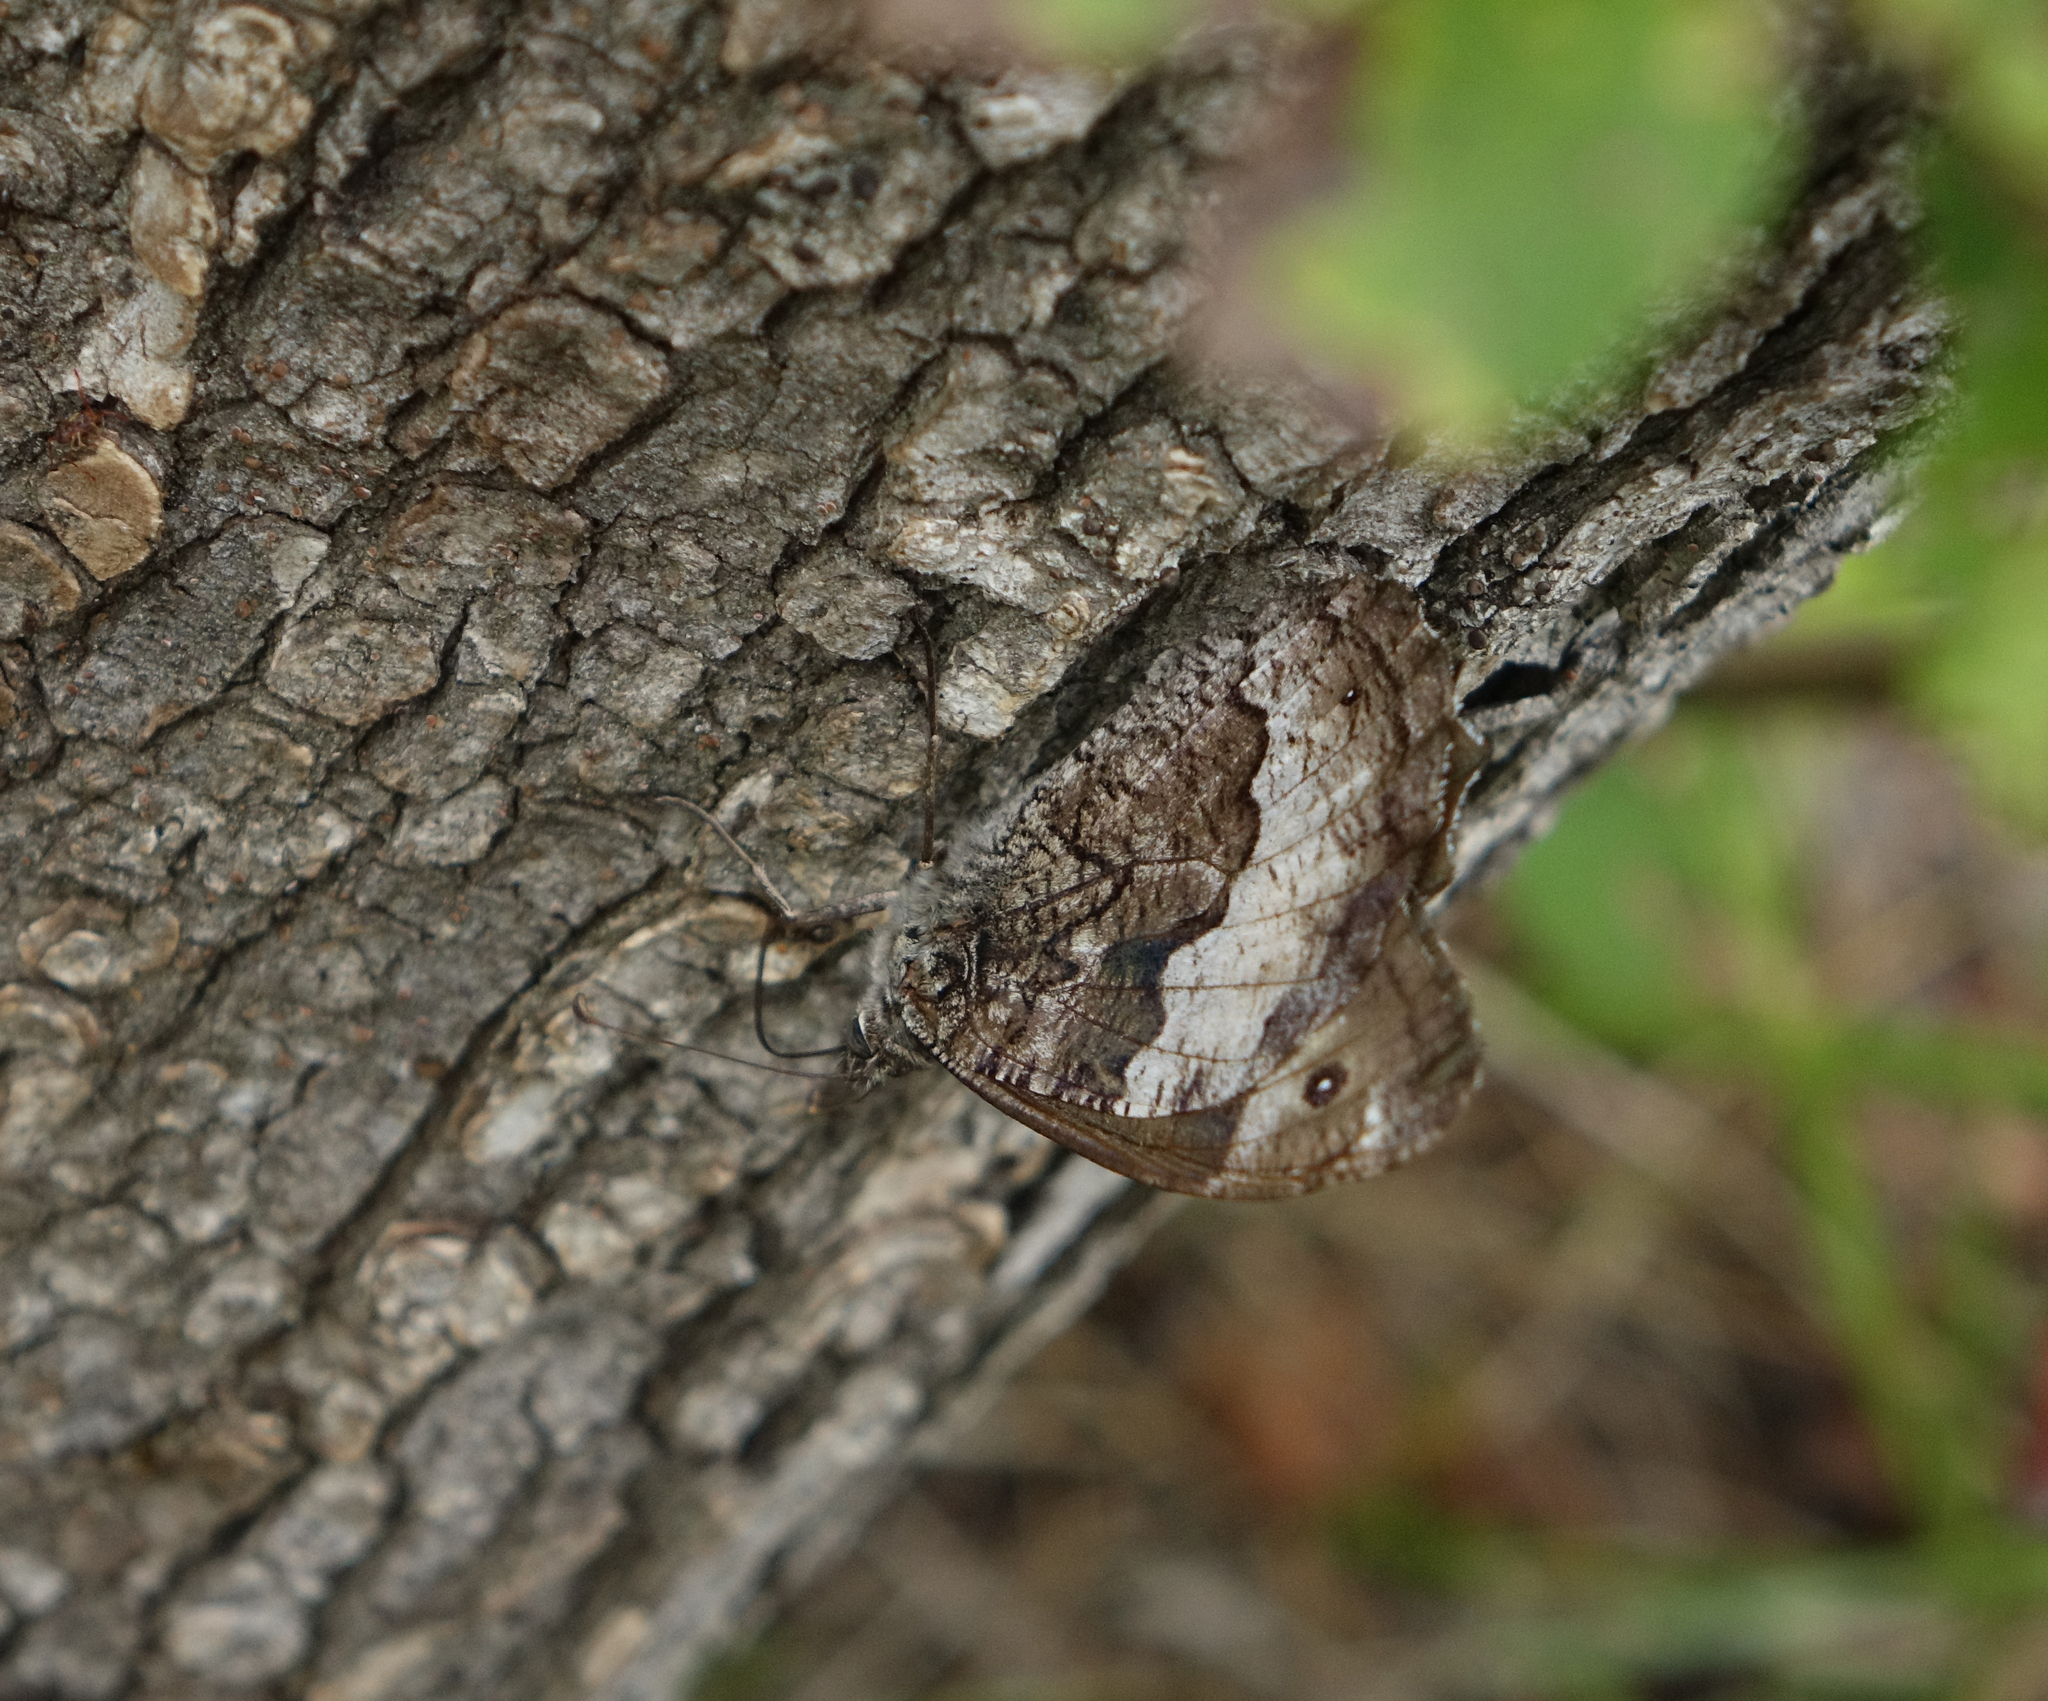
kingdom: Animalia
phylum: Arthropoda
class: Insecta
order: Lepidoptera
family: Nymphalidae
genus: Hipparchia
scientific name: Hipparchia syriaca
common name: Eastern rock grayling
